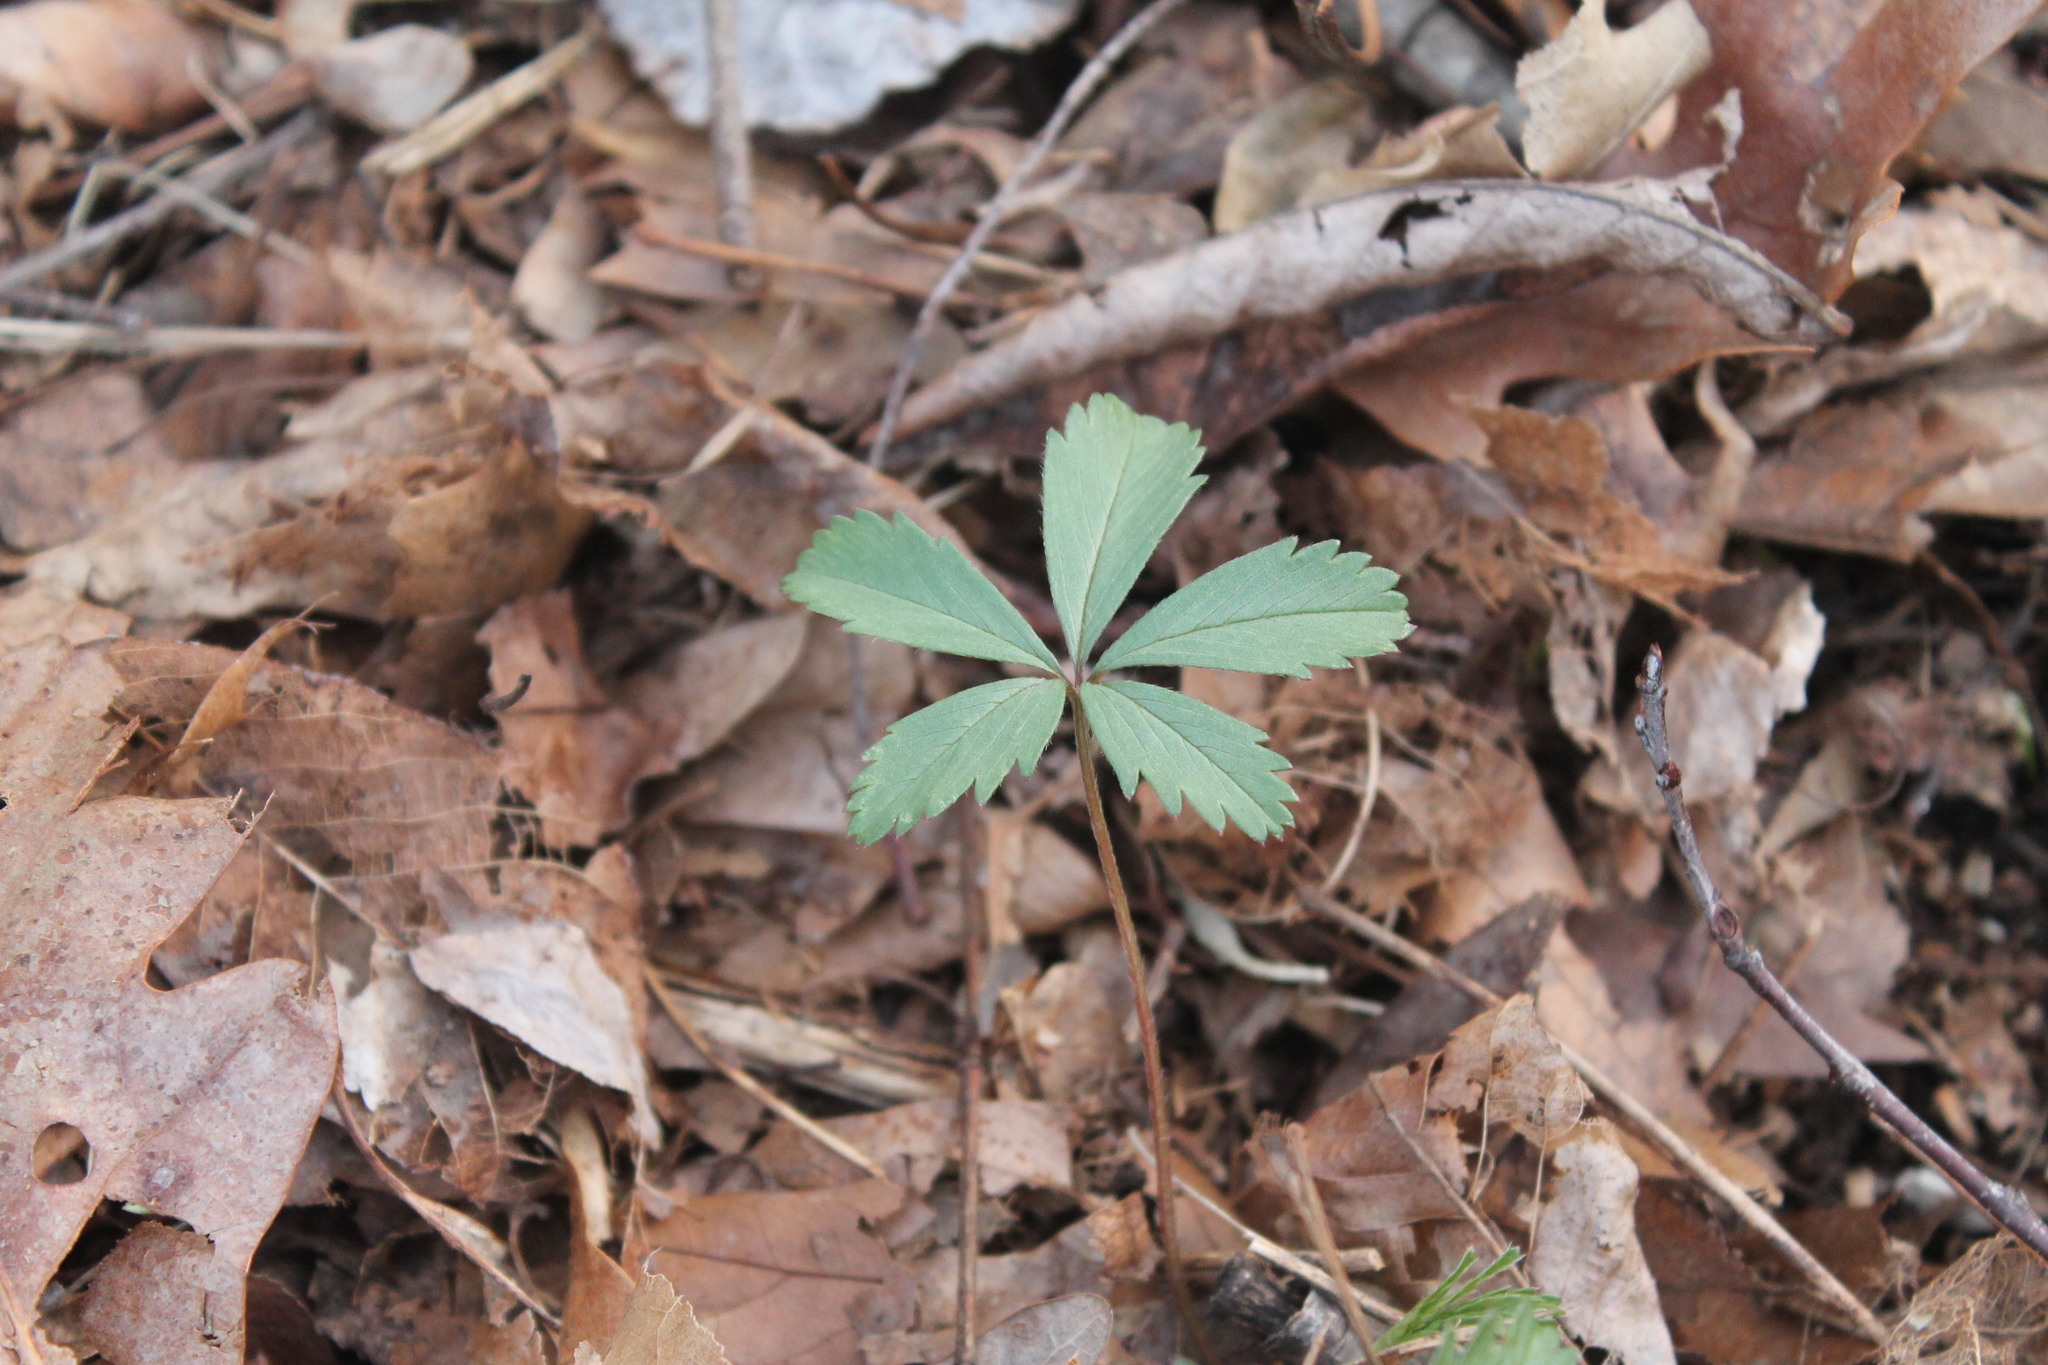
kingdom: Plantae
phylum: Tracheophyta
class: Magnoliopsida
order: Rosales
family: Rosaceae
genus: Potentilla
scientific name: Potentilla simplex
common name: Old field cinquefoil
